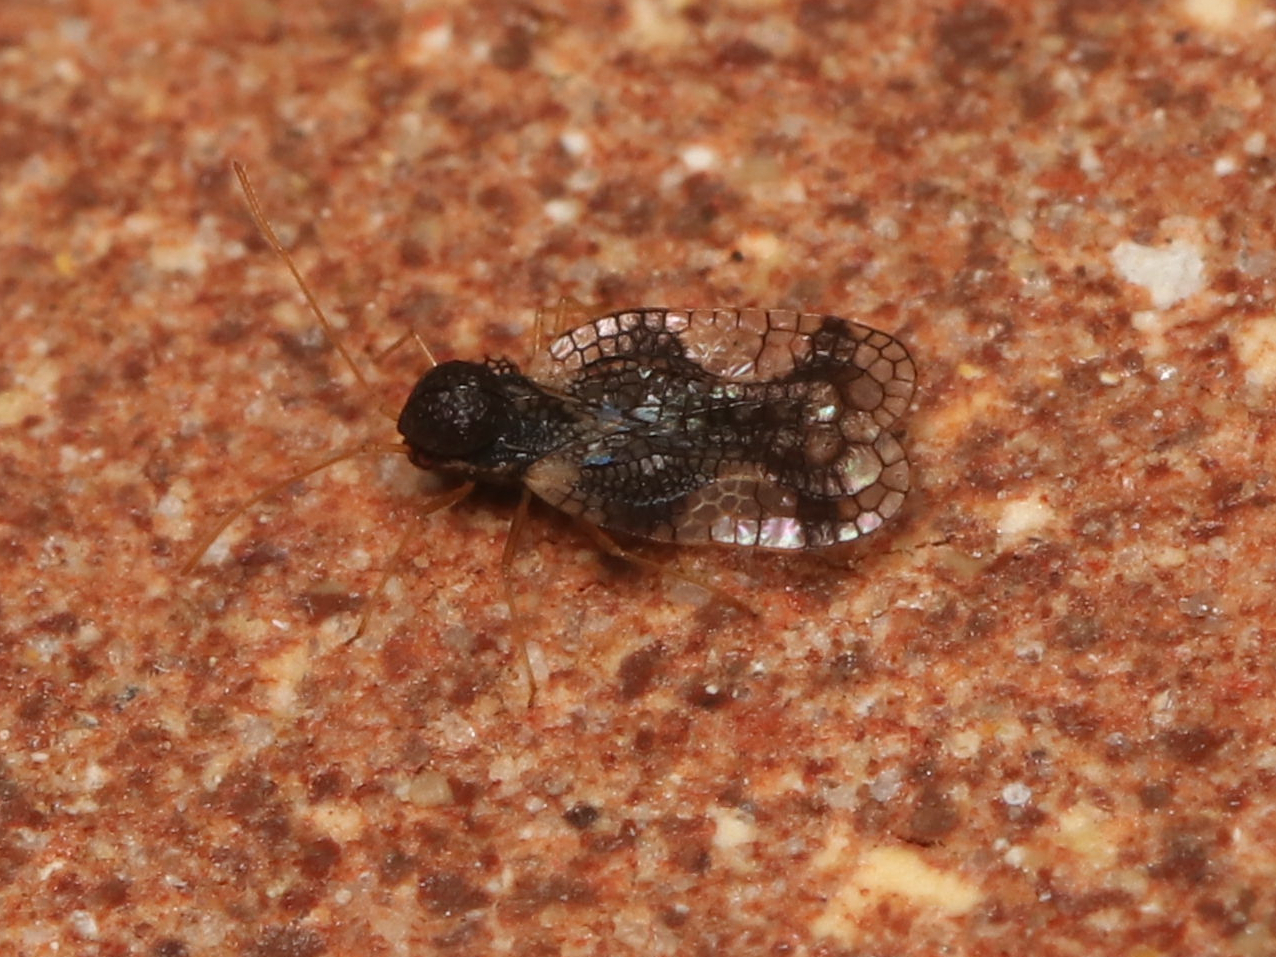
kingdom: Animalia
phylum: Arthropoda
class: Insecta
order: Hemiptera
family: Tingidae
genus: Stephanitis
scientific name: Stephanitis takeyai
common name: Andromeda lacebug
